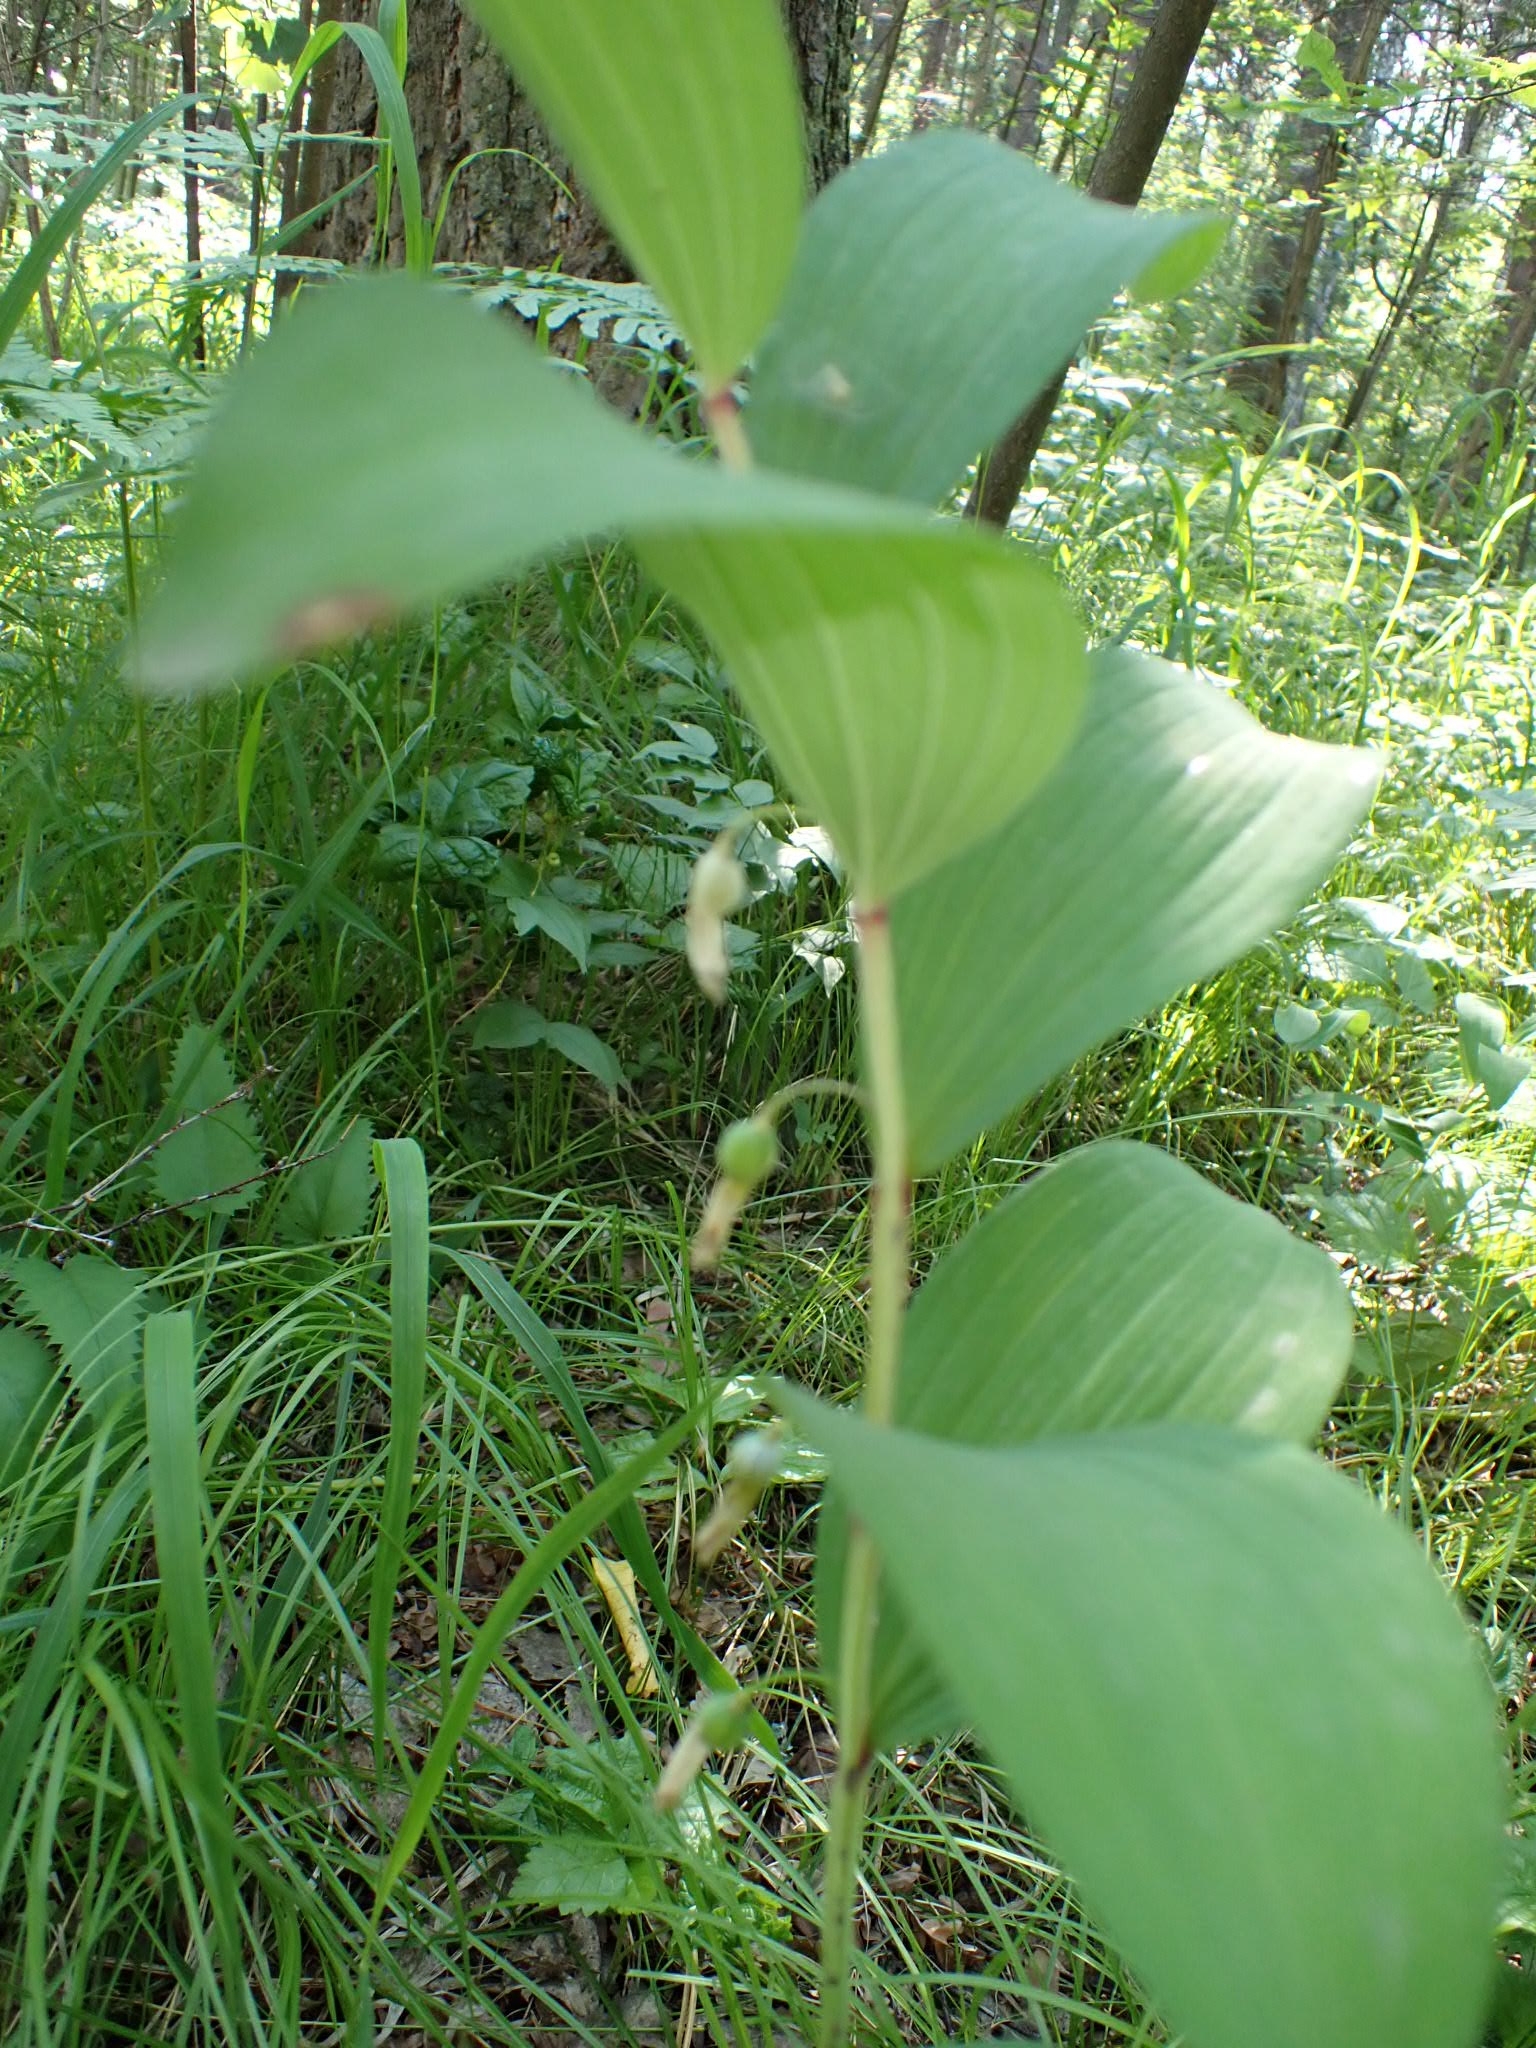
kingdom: Plantae
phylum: Tracheophyta
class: Liliopsida
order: Asparagales
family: Asparagaceae
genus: Polygonatum
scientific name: Polygonatum odoratum
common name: Angular solomon's-seal
